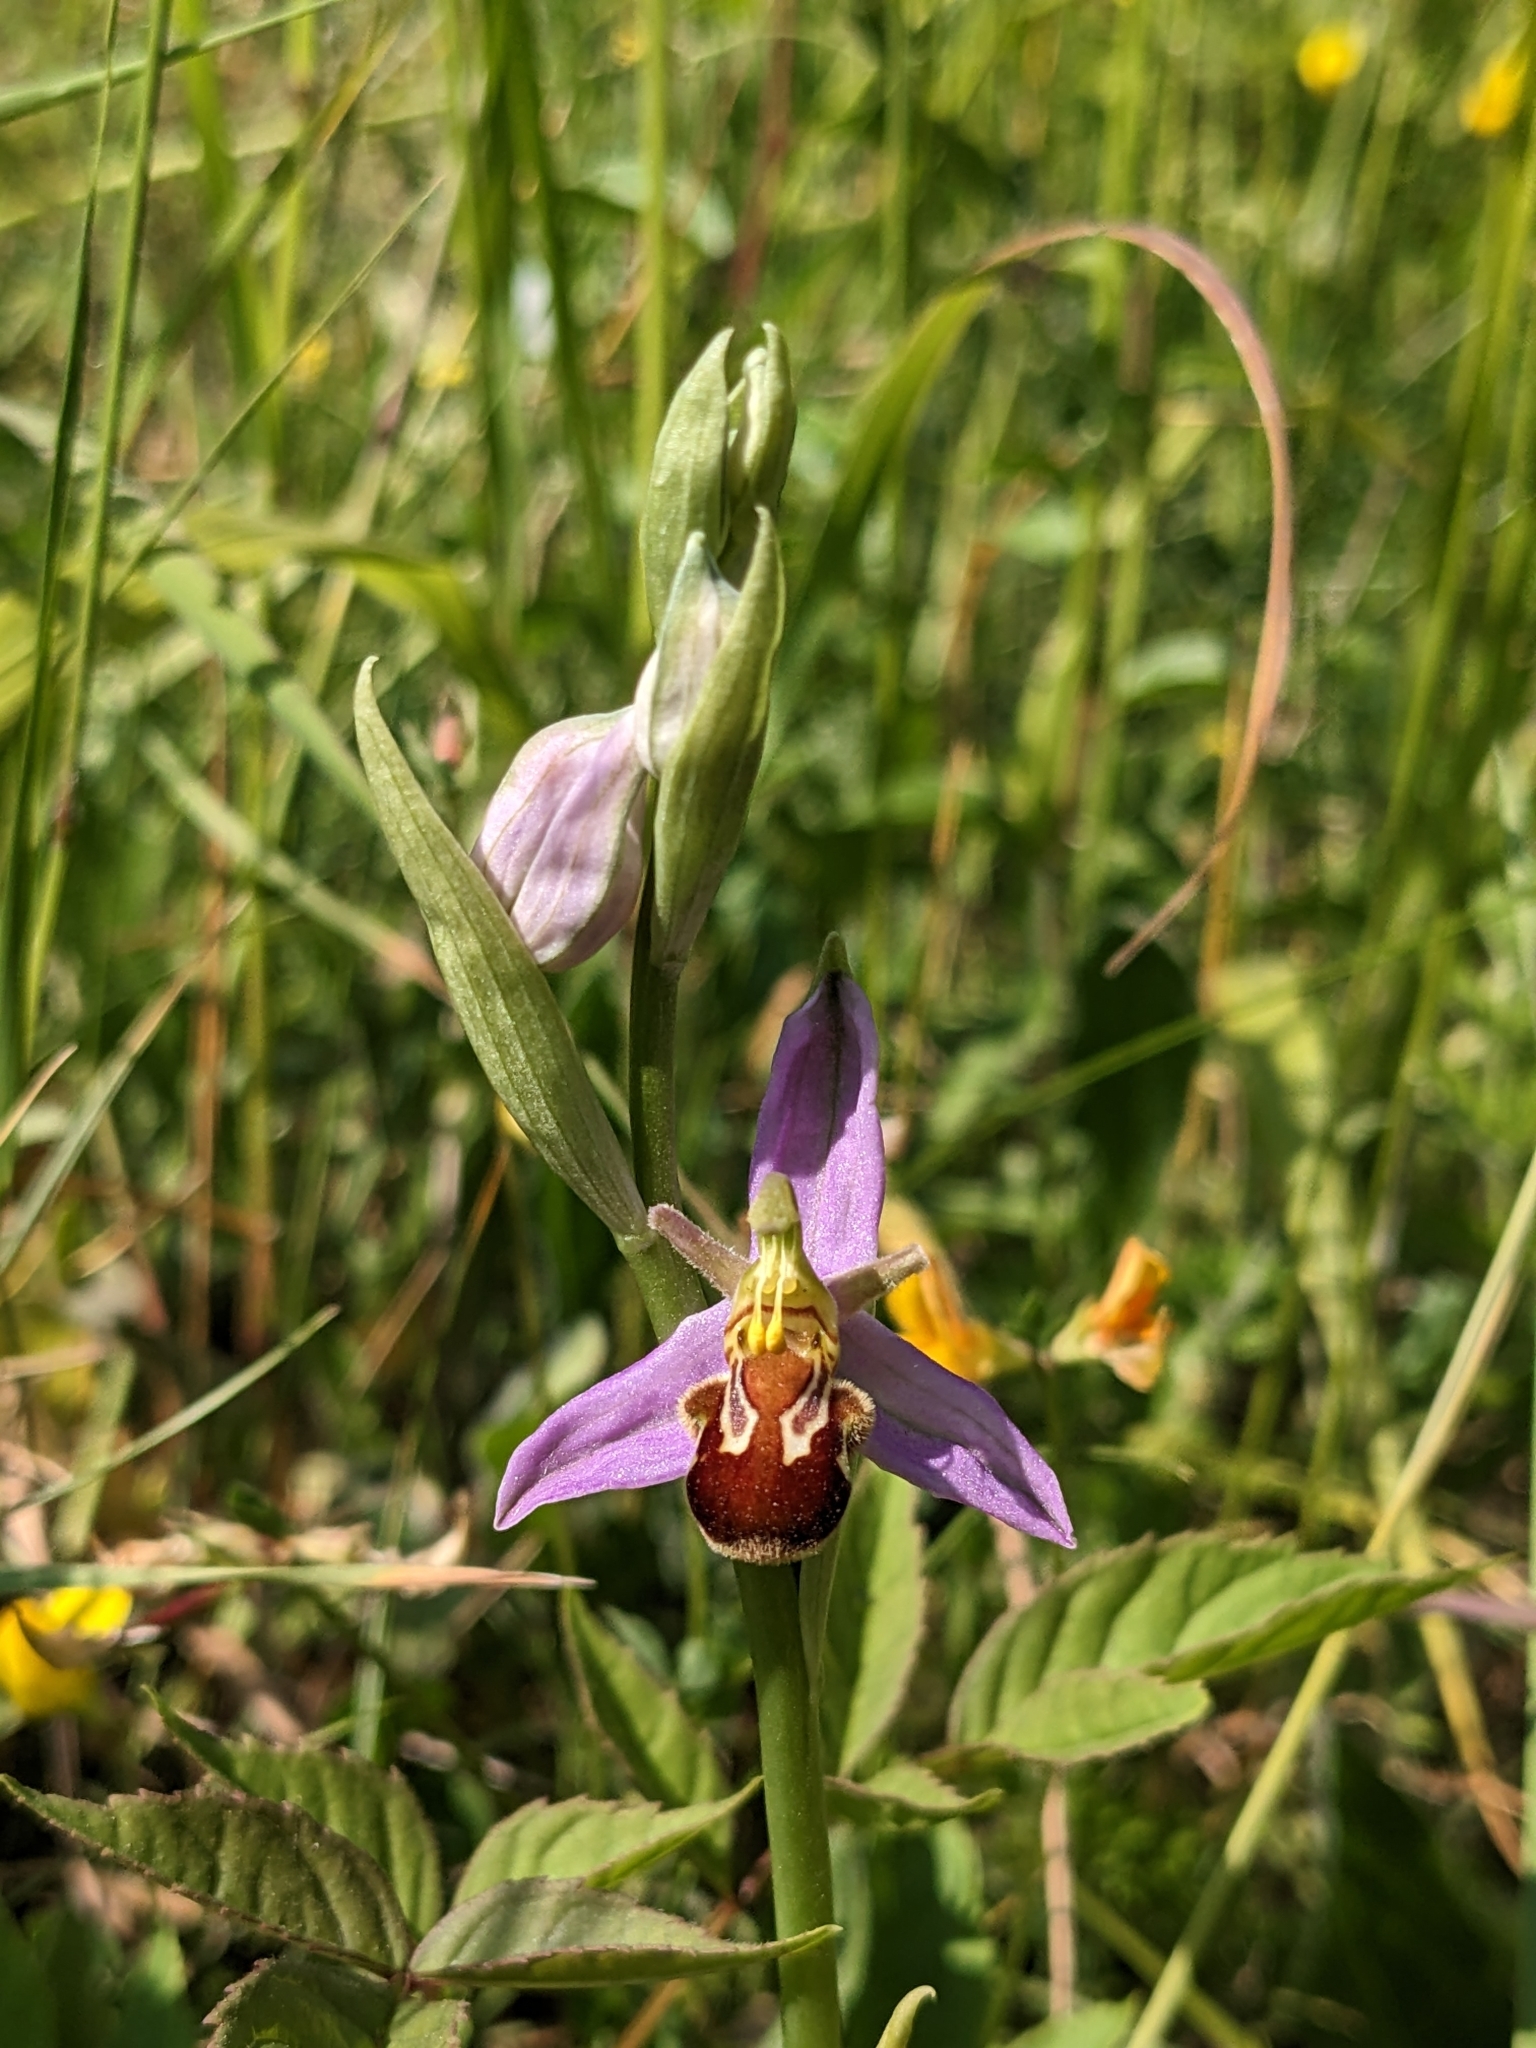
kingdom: Plantae
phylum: Tracheophyta
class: Liliopsida
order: Asparagales
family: Orchidaceae
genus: Ophrys
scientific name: Ophrys apifera
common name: Bee orchid
